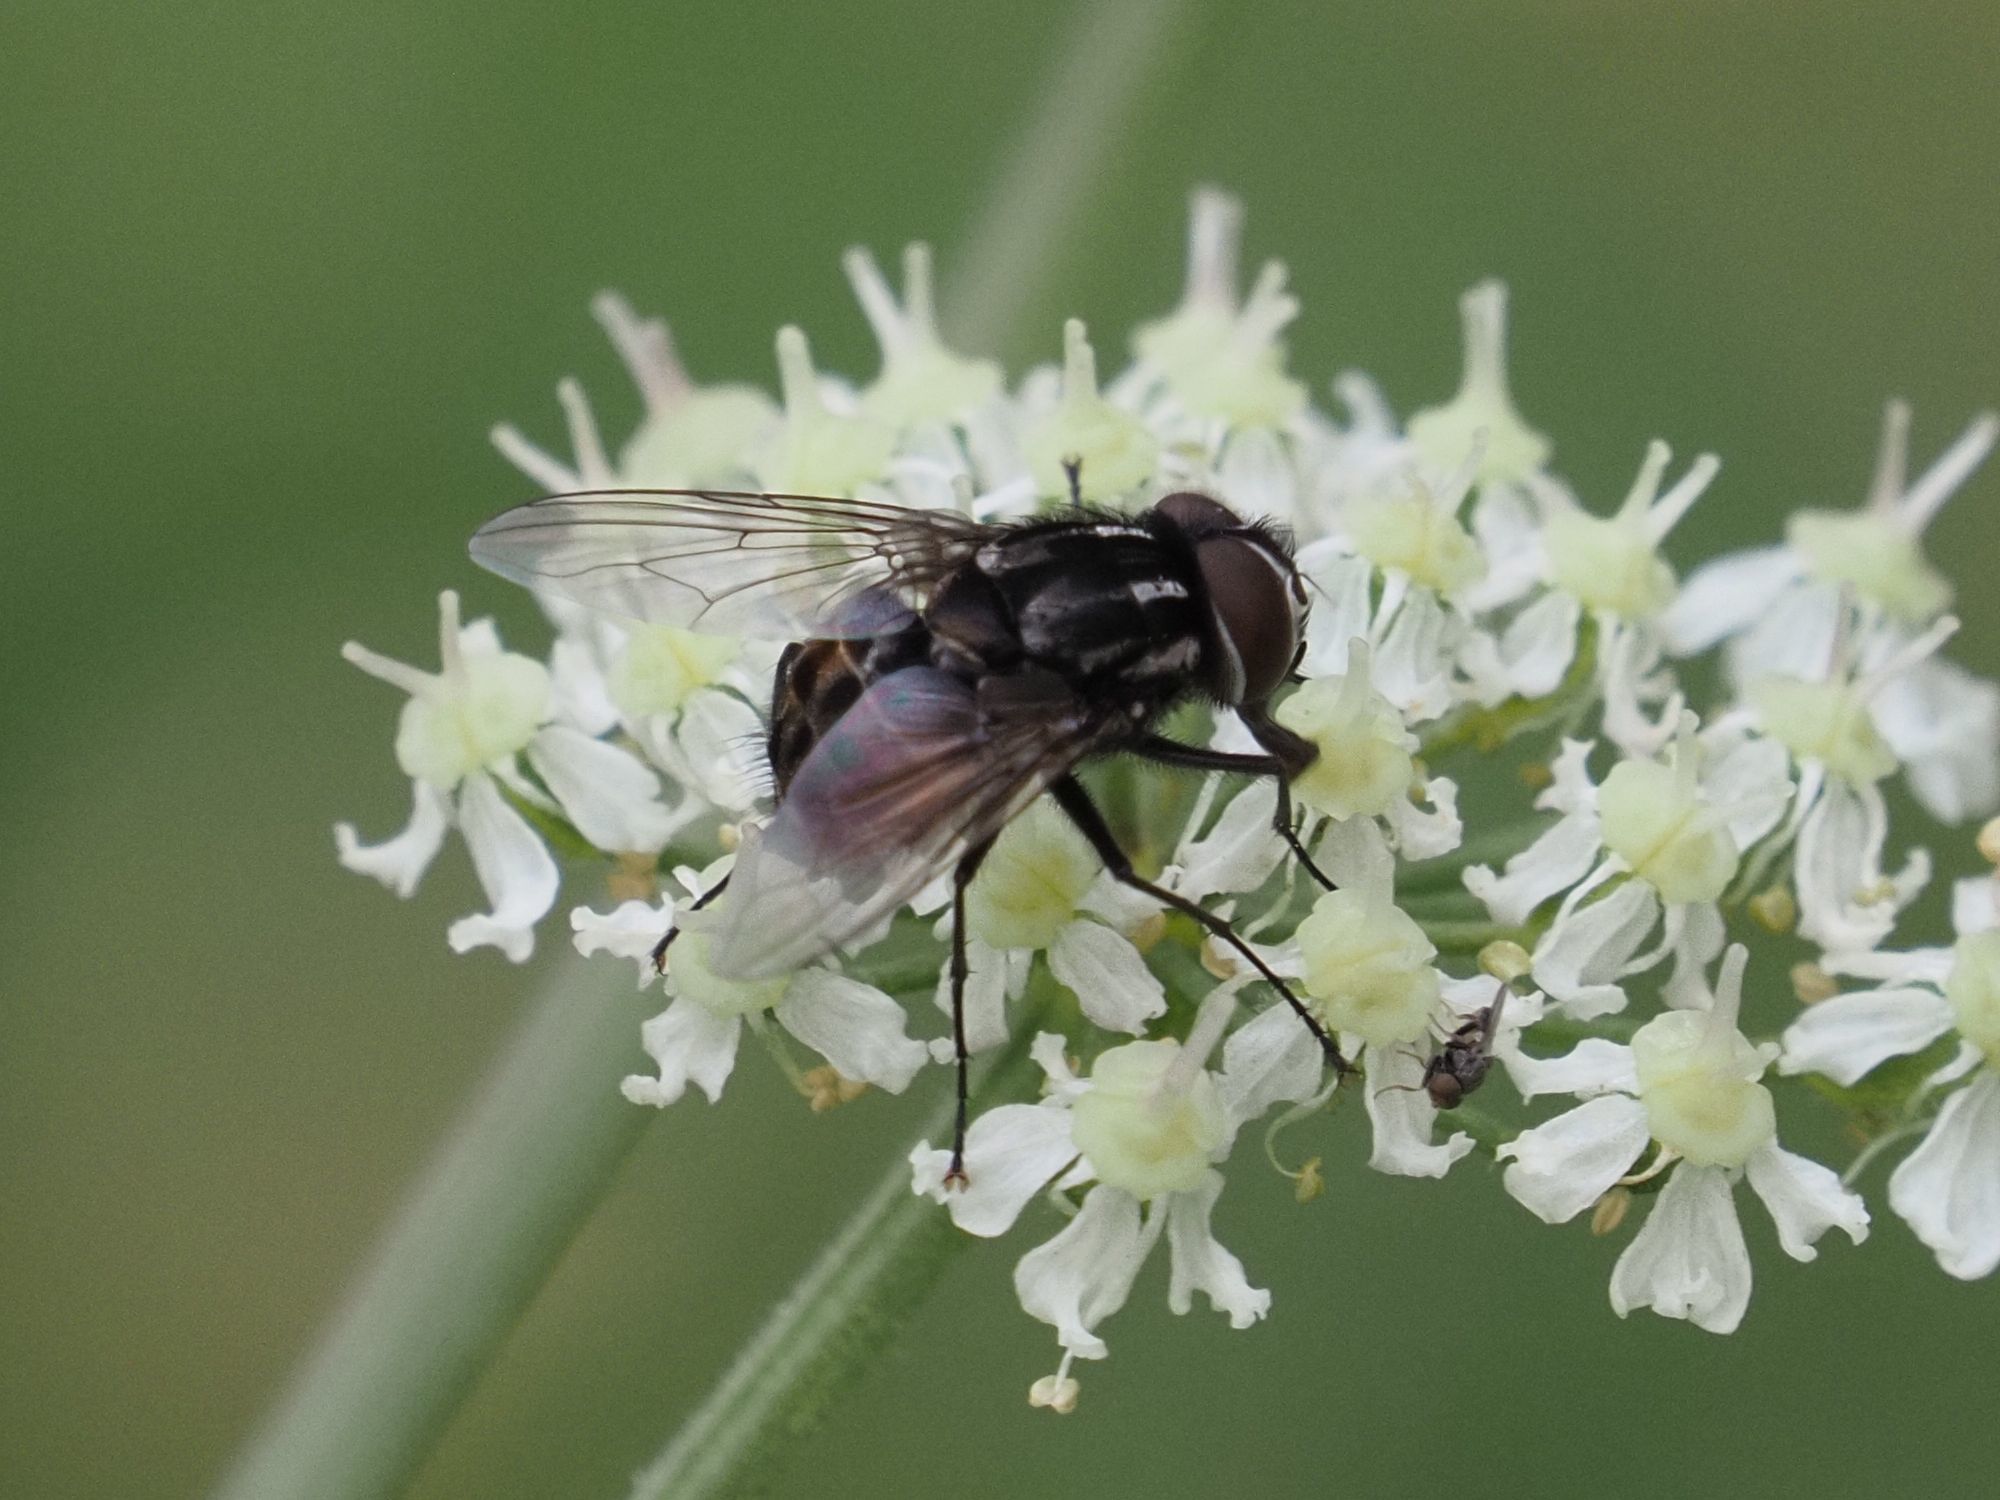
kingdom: Animalia
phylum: Arthropoda
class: Insecta
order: Diptera
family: Muscidae
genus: Graphomya
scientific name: Graphomya maculata
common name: Muscid fly
